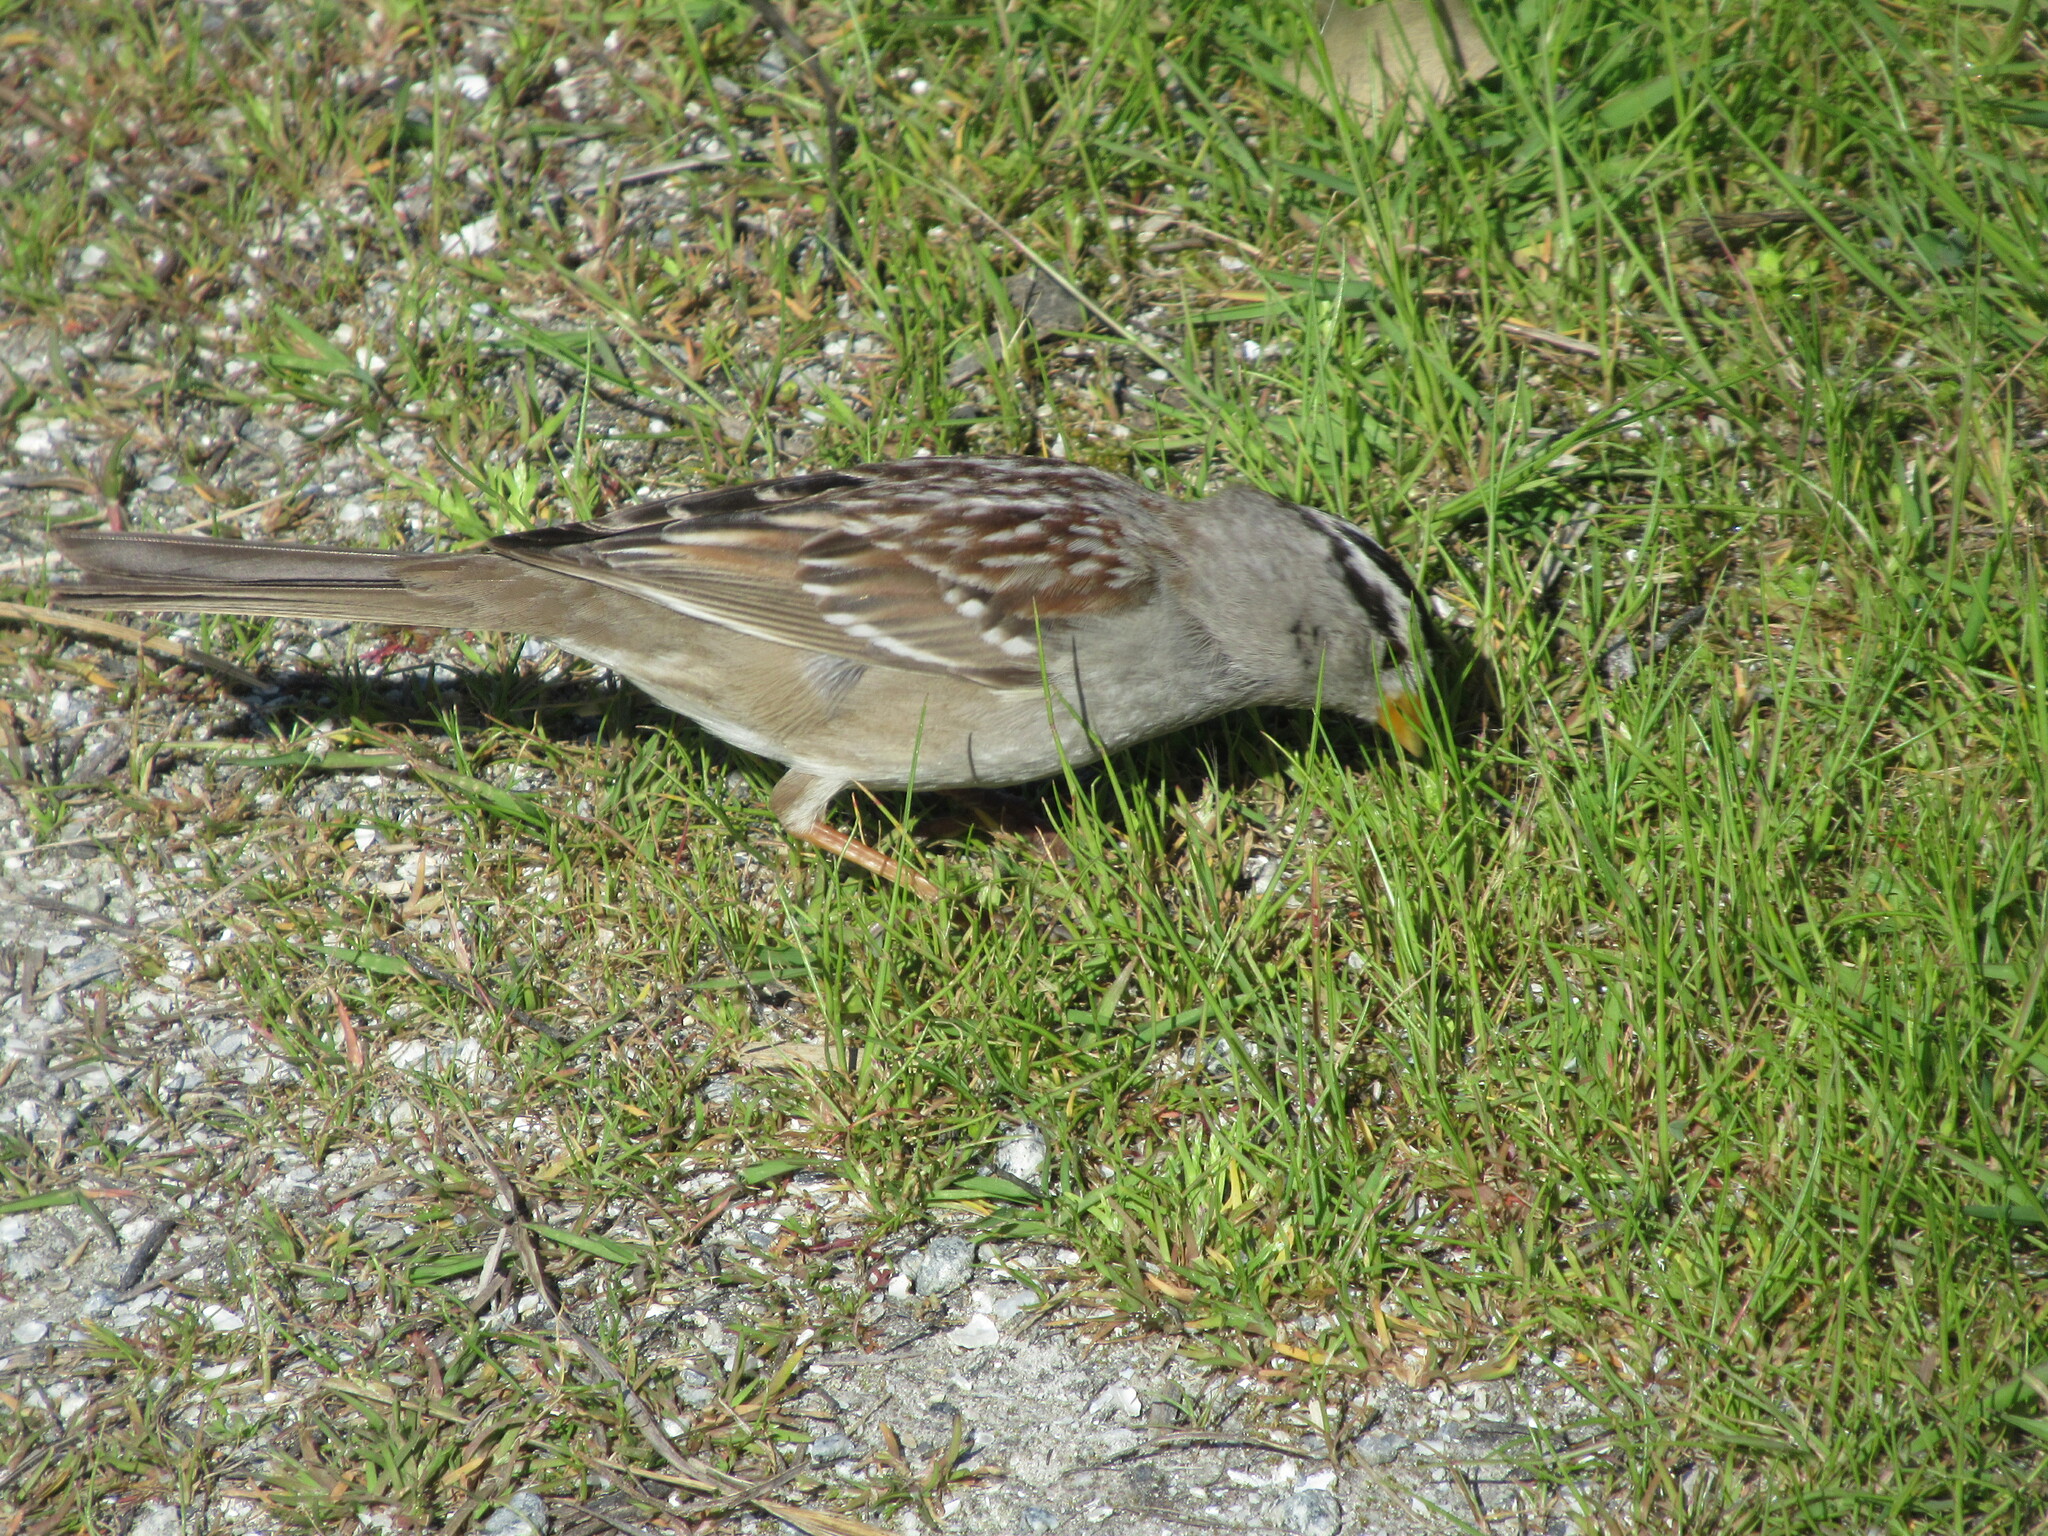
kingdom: Animalia
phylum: Chordata
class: Aves
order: Passeriformes
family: Passerellidae
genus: Zonotrichia
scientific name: Zonotrichia leucophrys
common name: White-crowned sparrow
